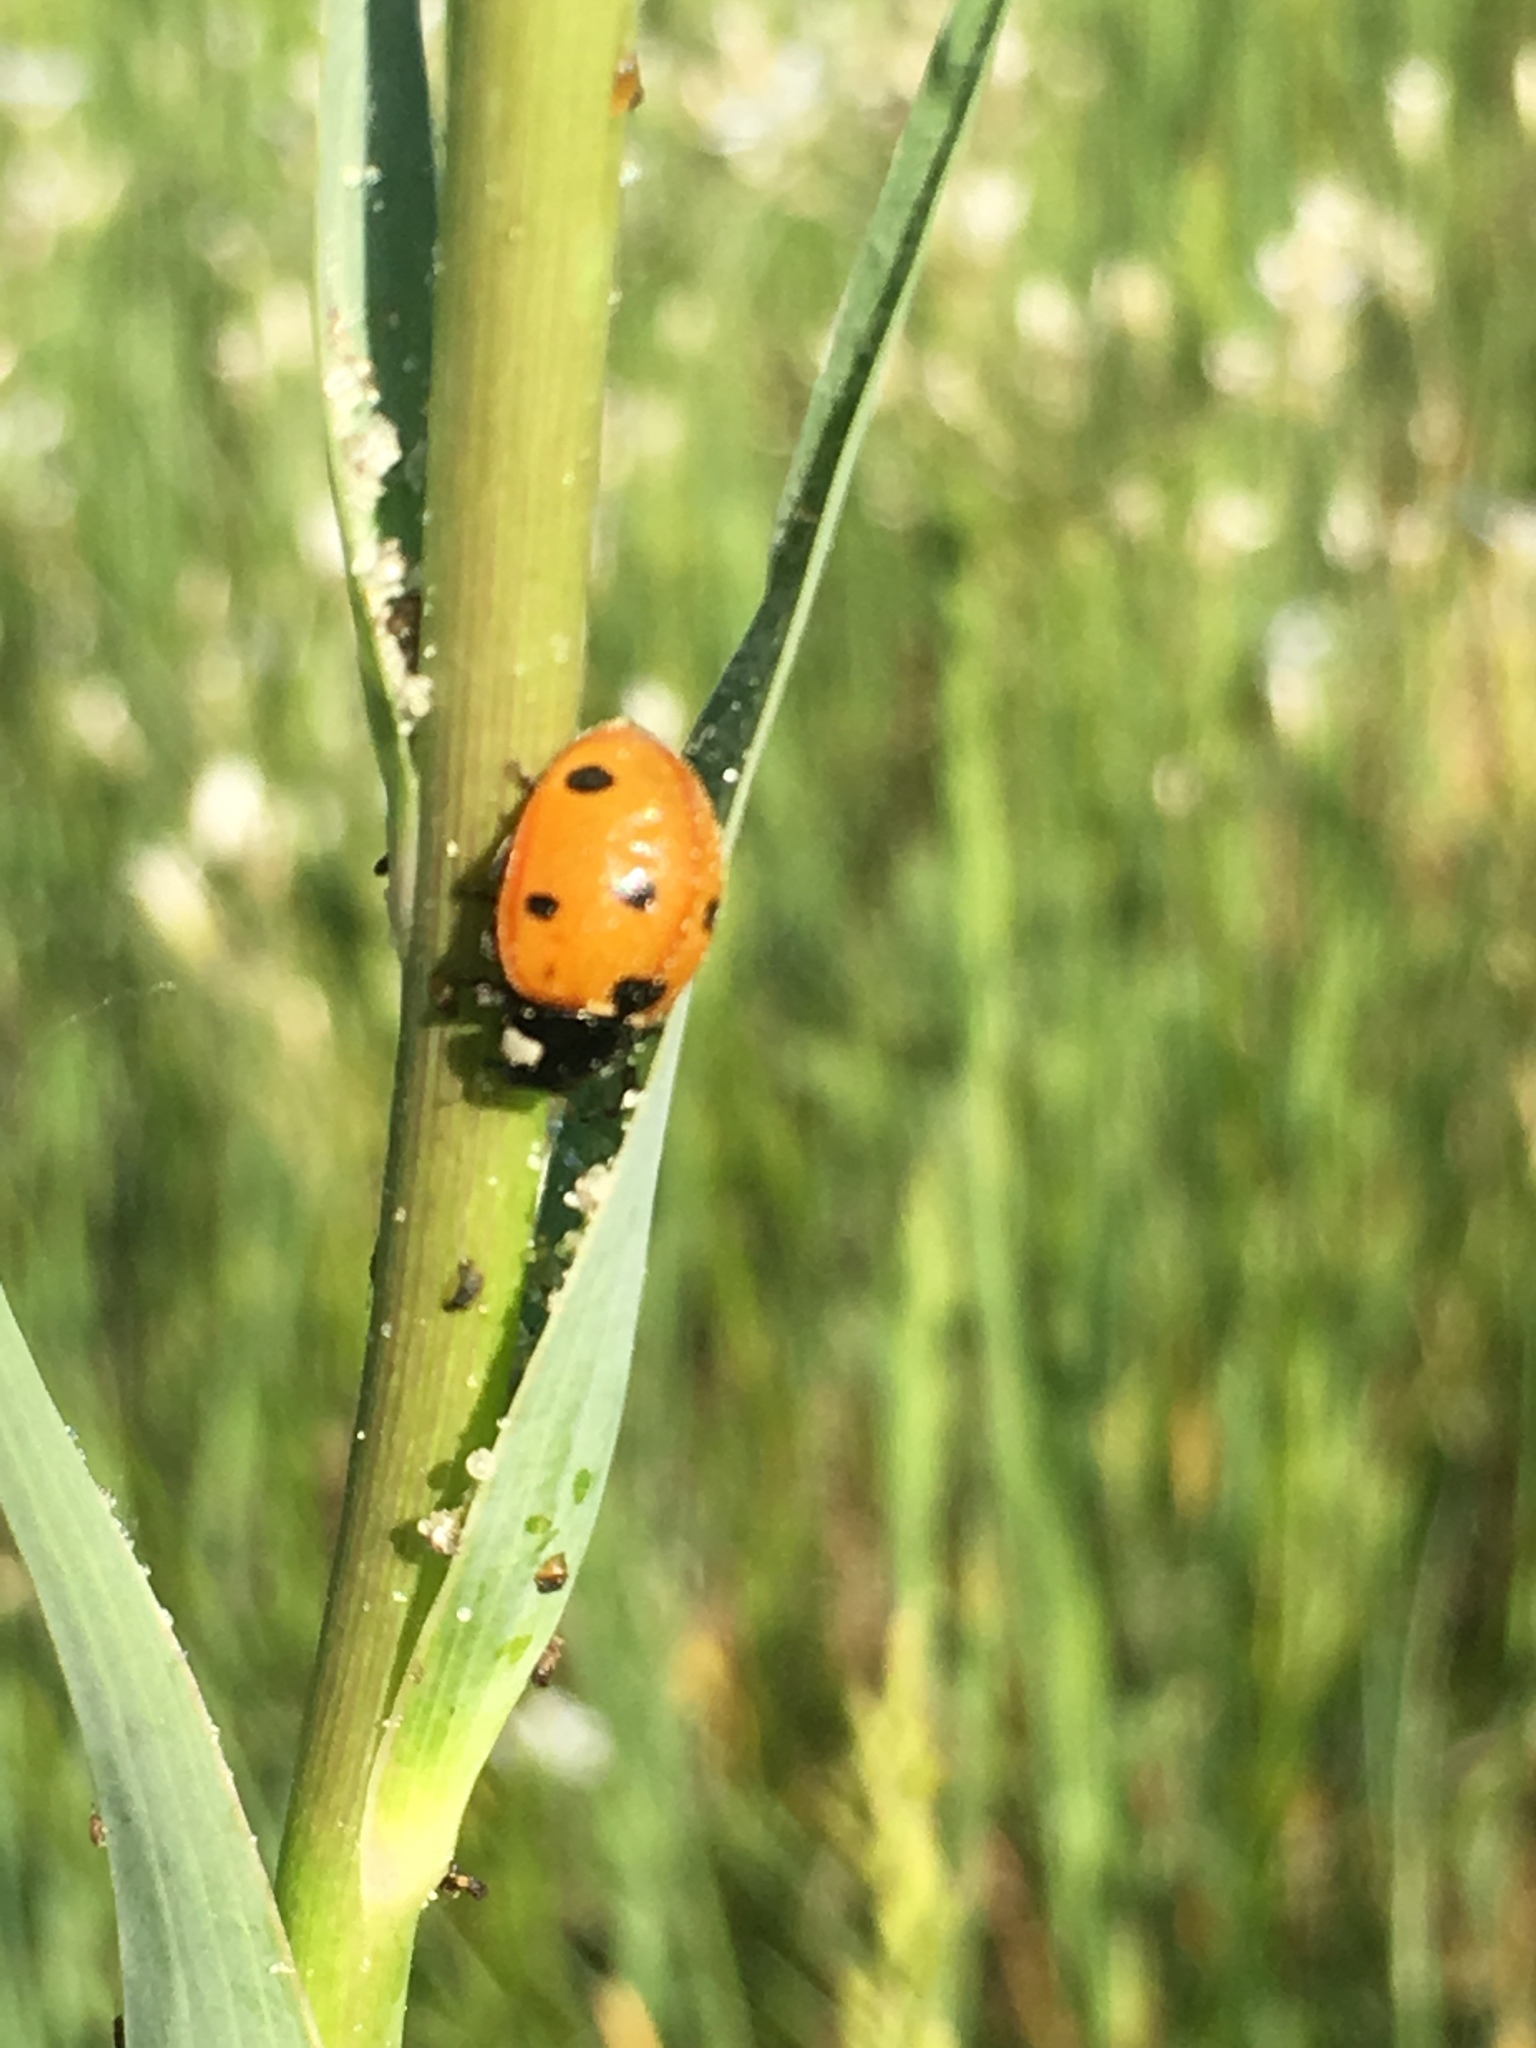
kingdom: Animalia
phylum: Arthropoda
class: Insecta
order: Coleoptera
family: Coccinellidae
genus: Coccinella
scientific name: Coccinella septempunctata
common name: Sevenspotted lady beetle
